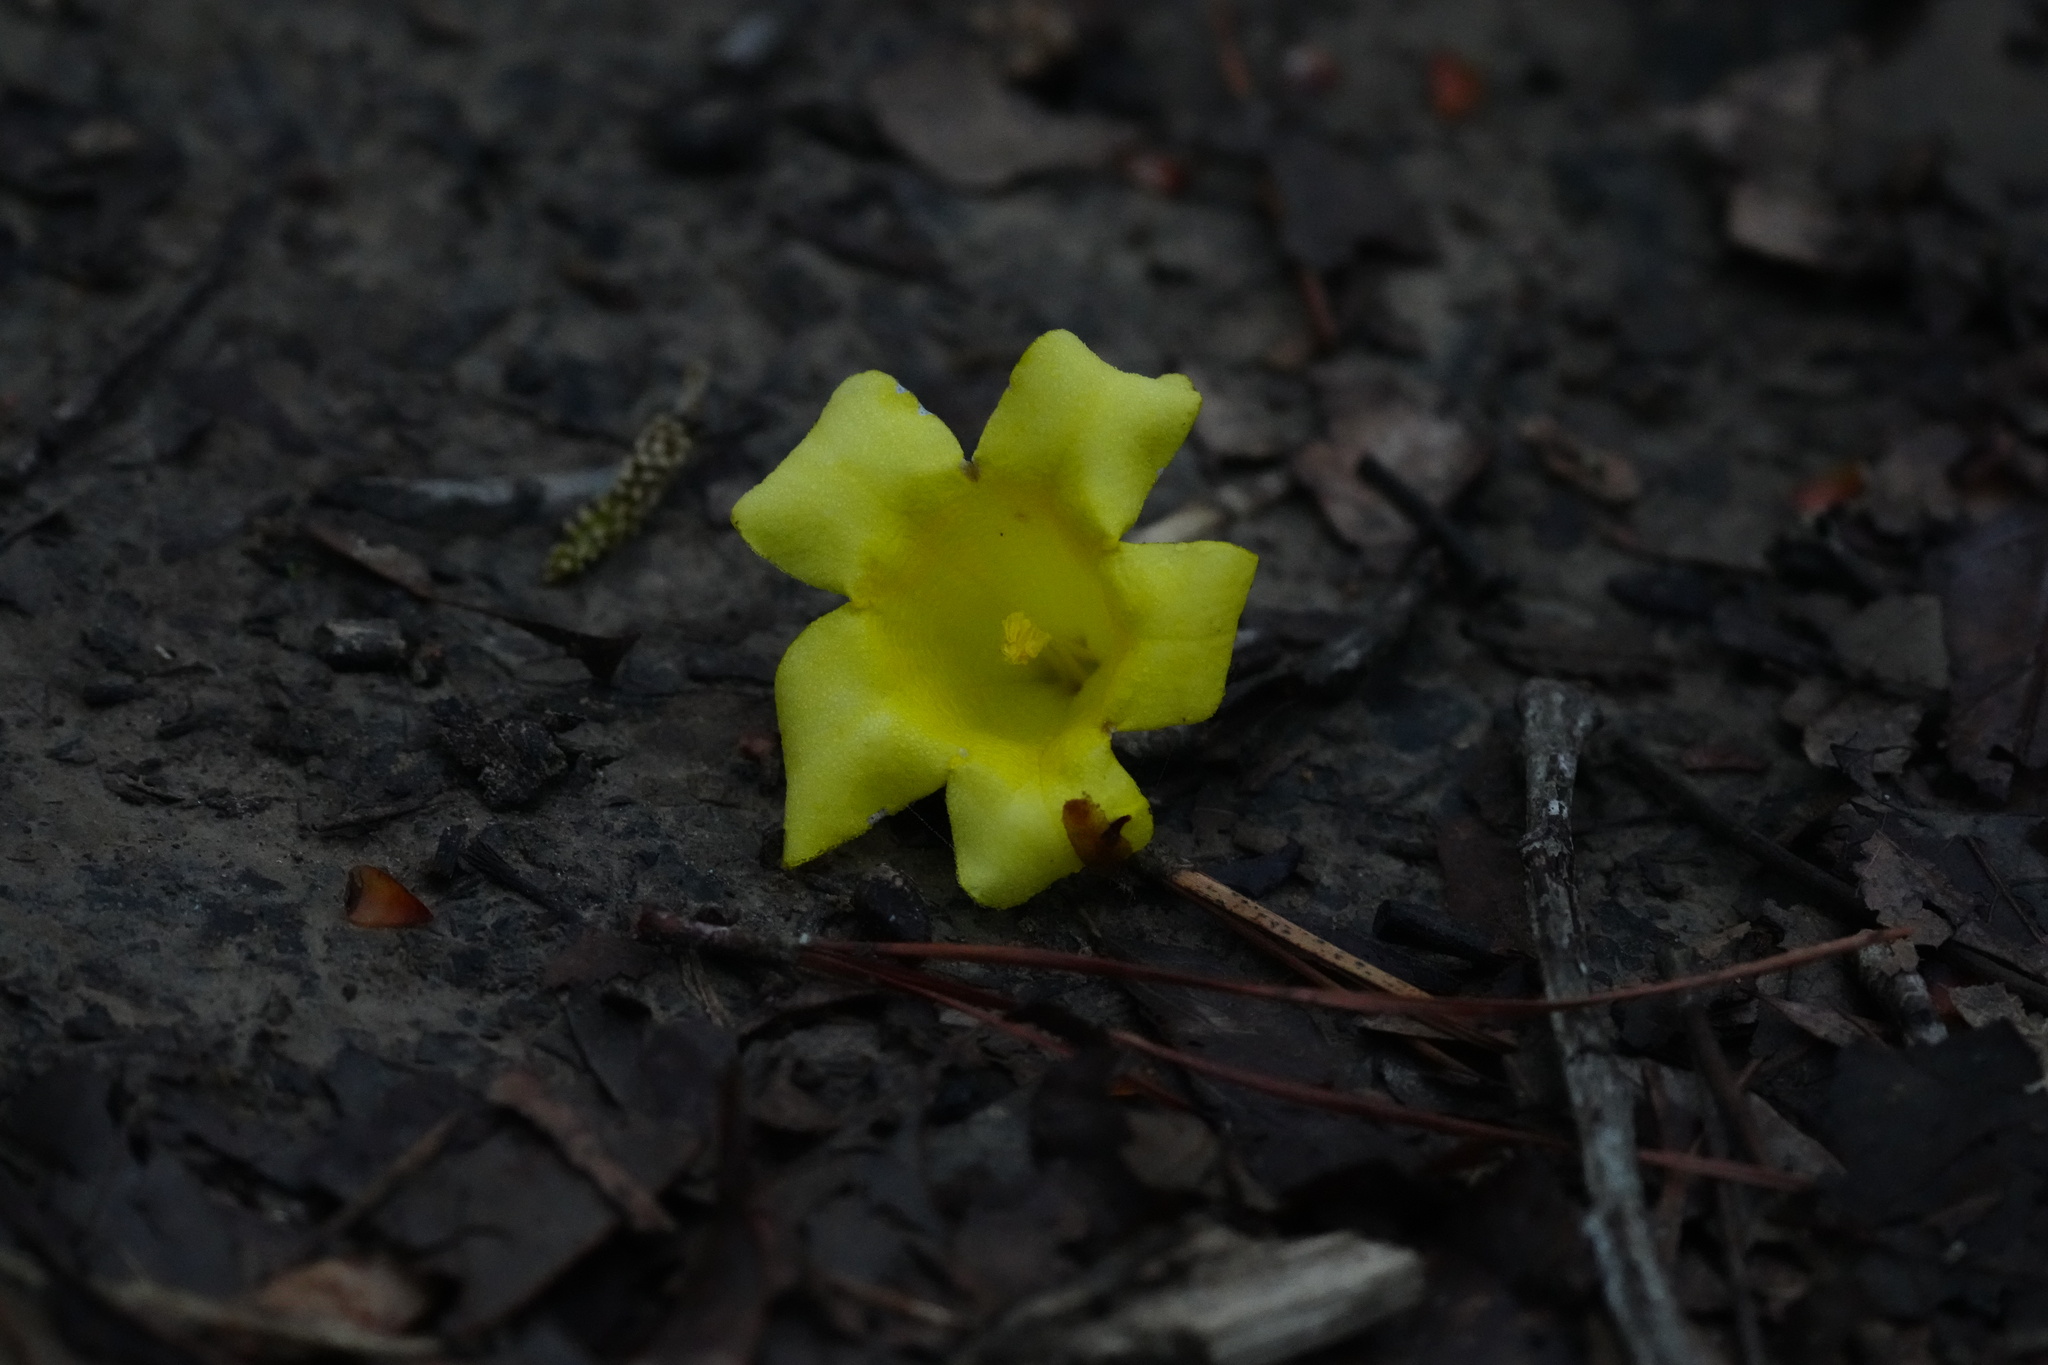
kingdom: Plantae
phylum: Tracheophyta
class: Magnoliopsida
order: Gentianales
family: Gelsemiaceae
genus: Gelsemium
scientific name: Gelsemium sempervirens
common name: Carolina-jasmine
